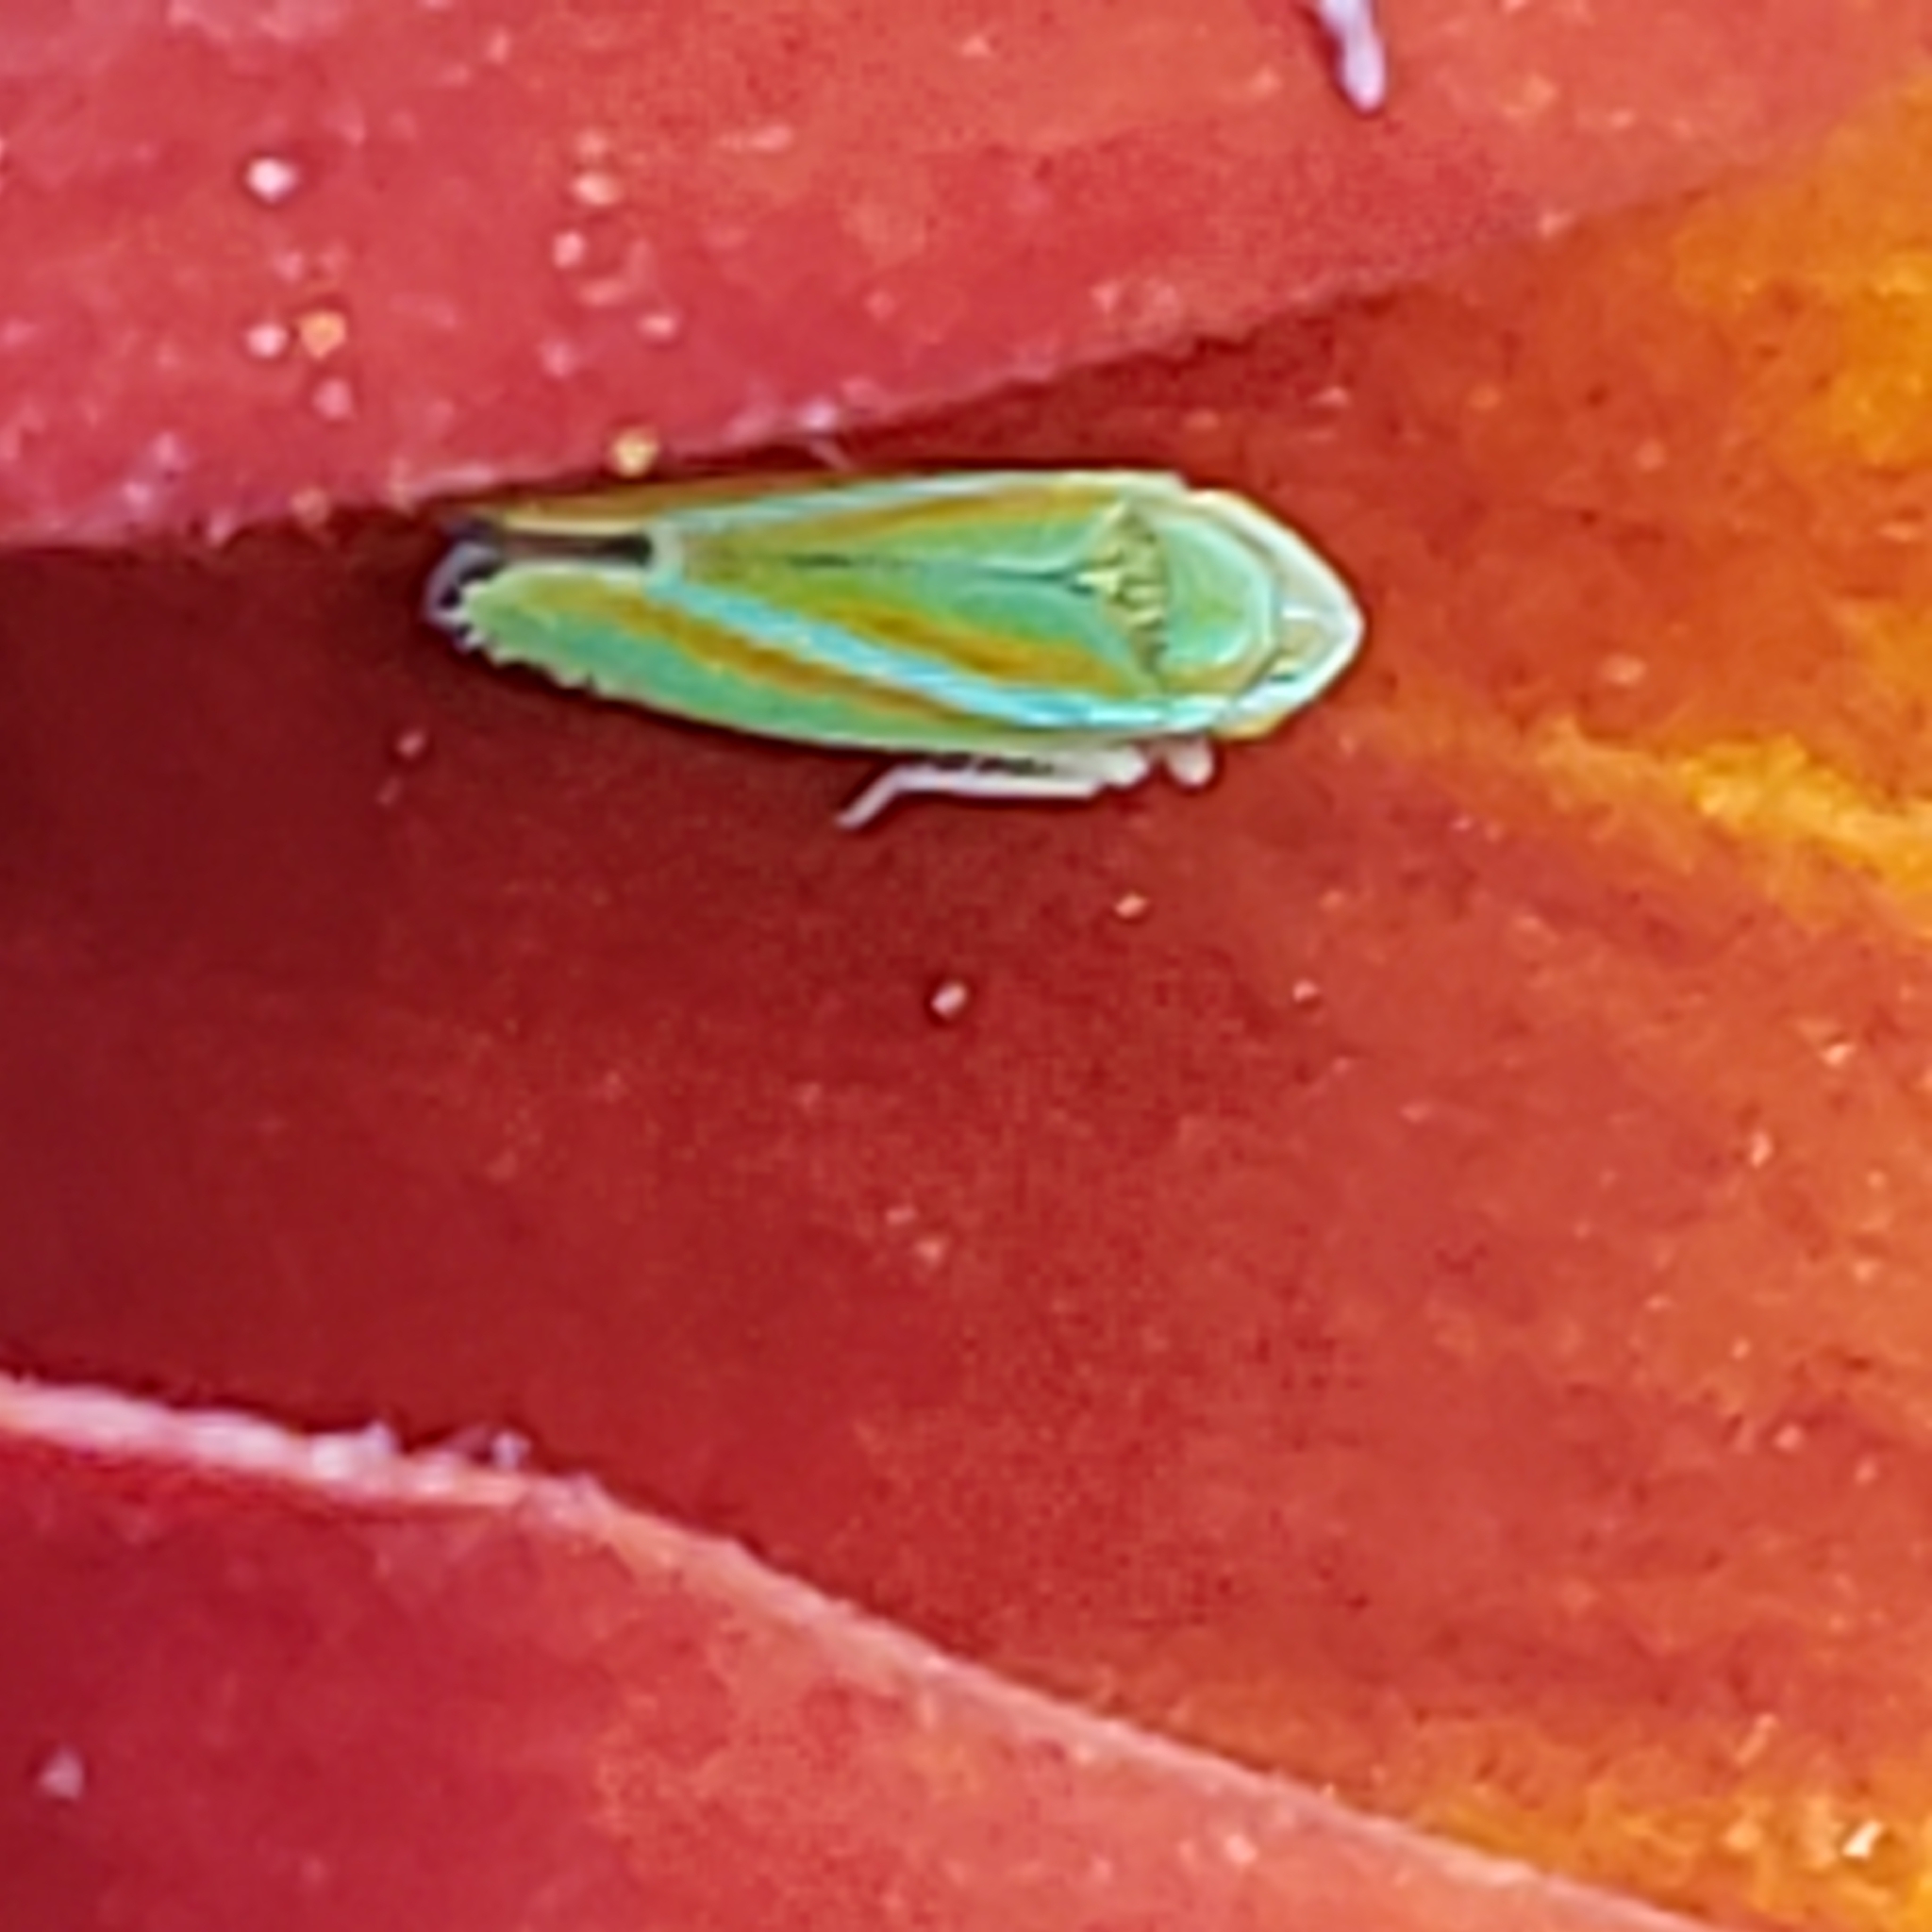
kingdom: Animalia
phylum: Arthropoda
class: Insecta
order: Hemiptera
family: Cicadellidae
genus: Graphocephala
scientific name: Graphocephala versuta
